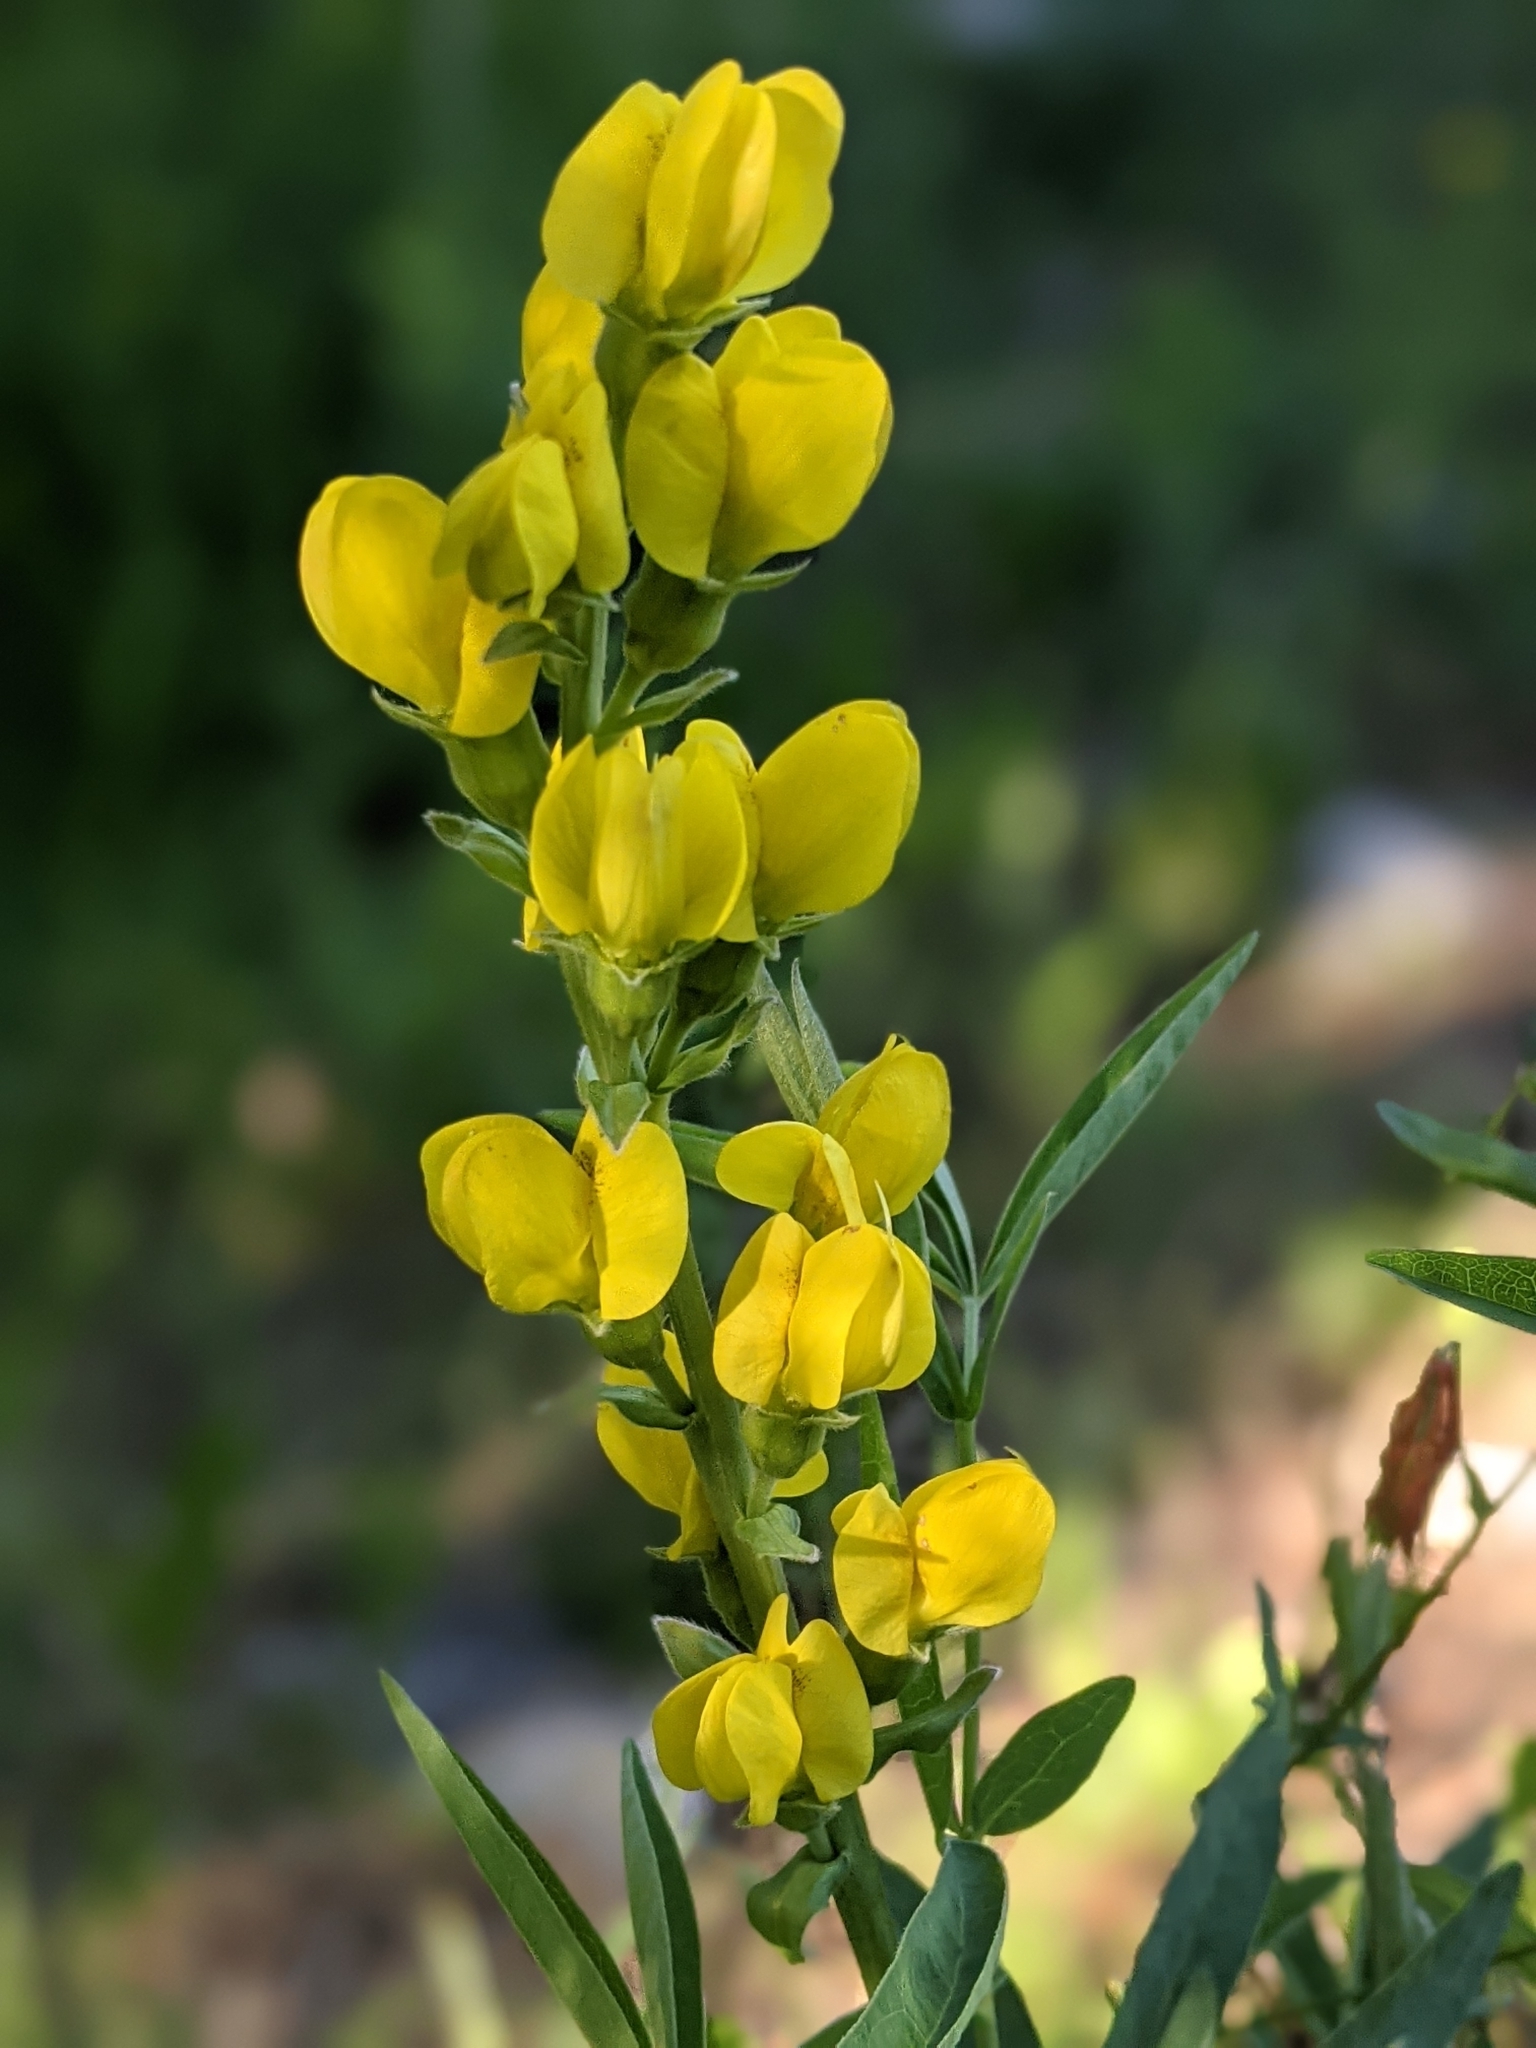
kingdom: Plantae
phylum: Tracheophyta
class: Magnoliopsida
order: Fabales
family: Fabaceae
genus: Thermopsis
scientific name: Thermopsis montana
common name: False lupin
